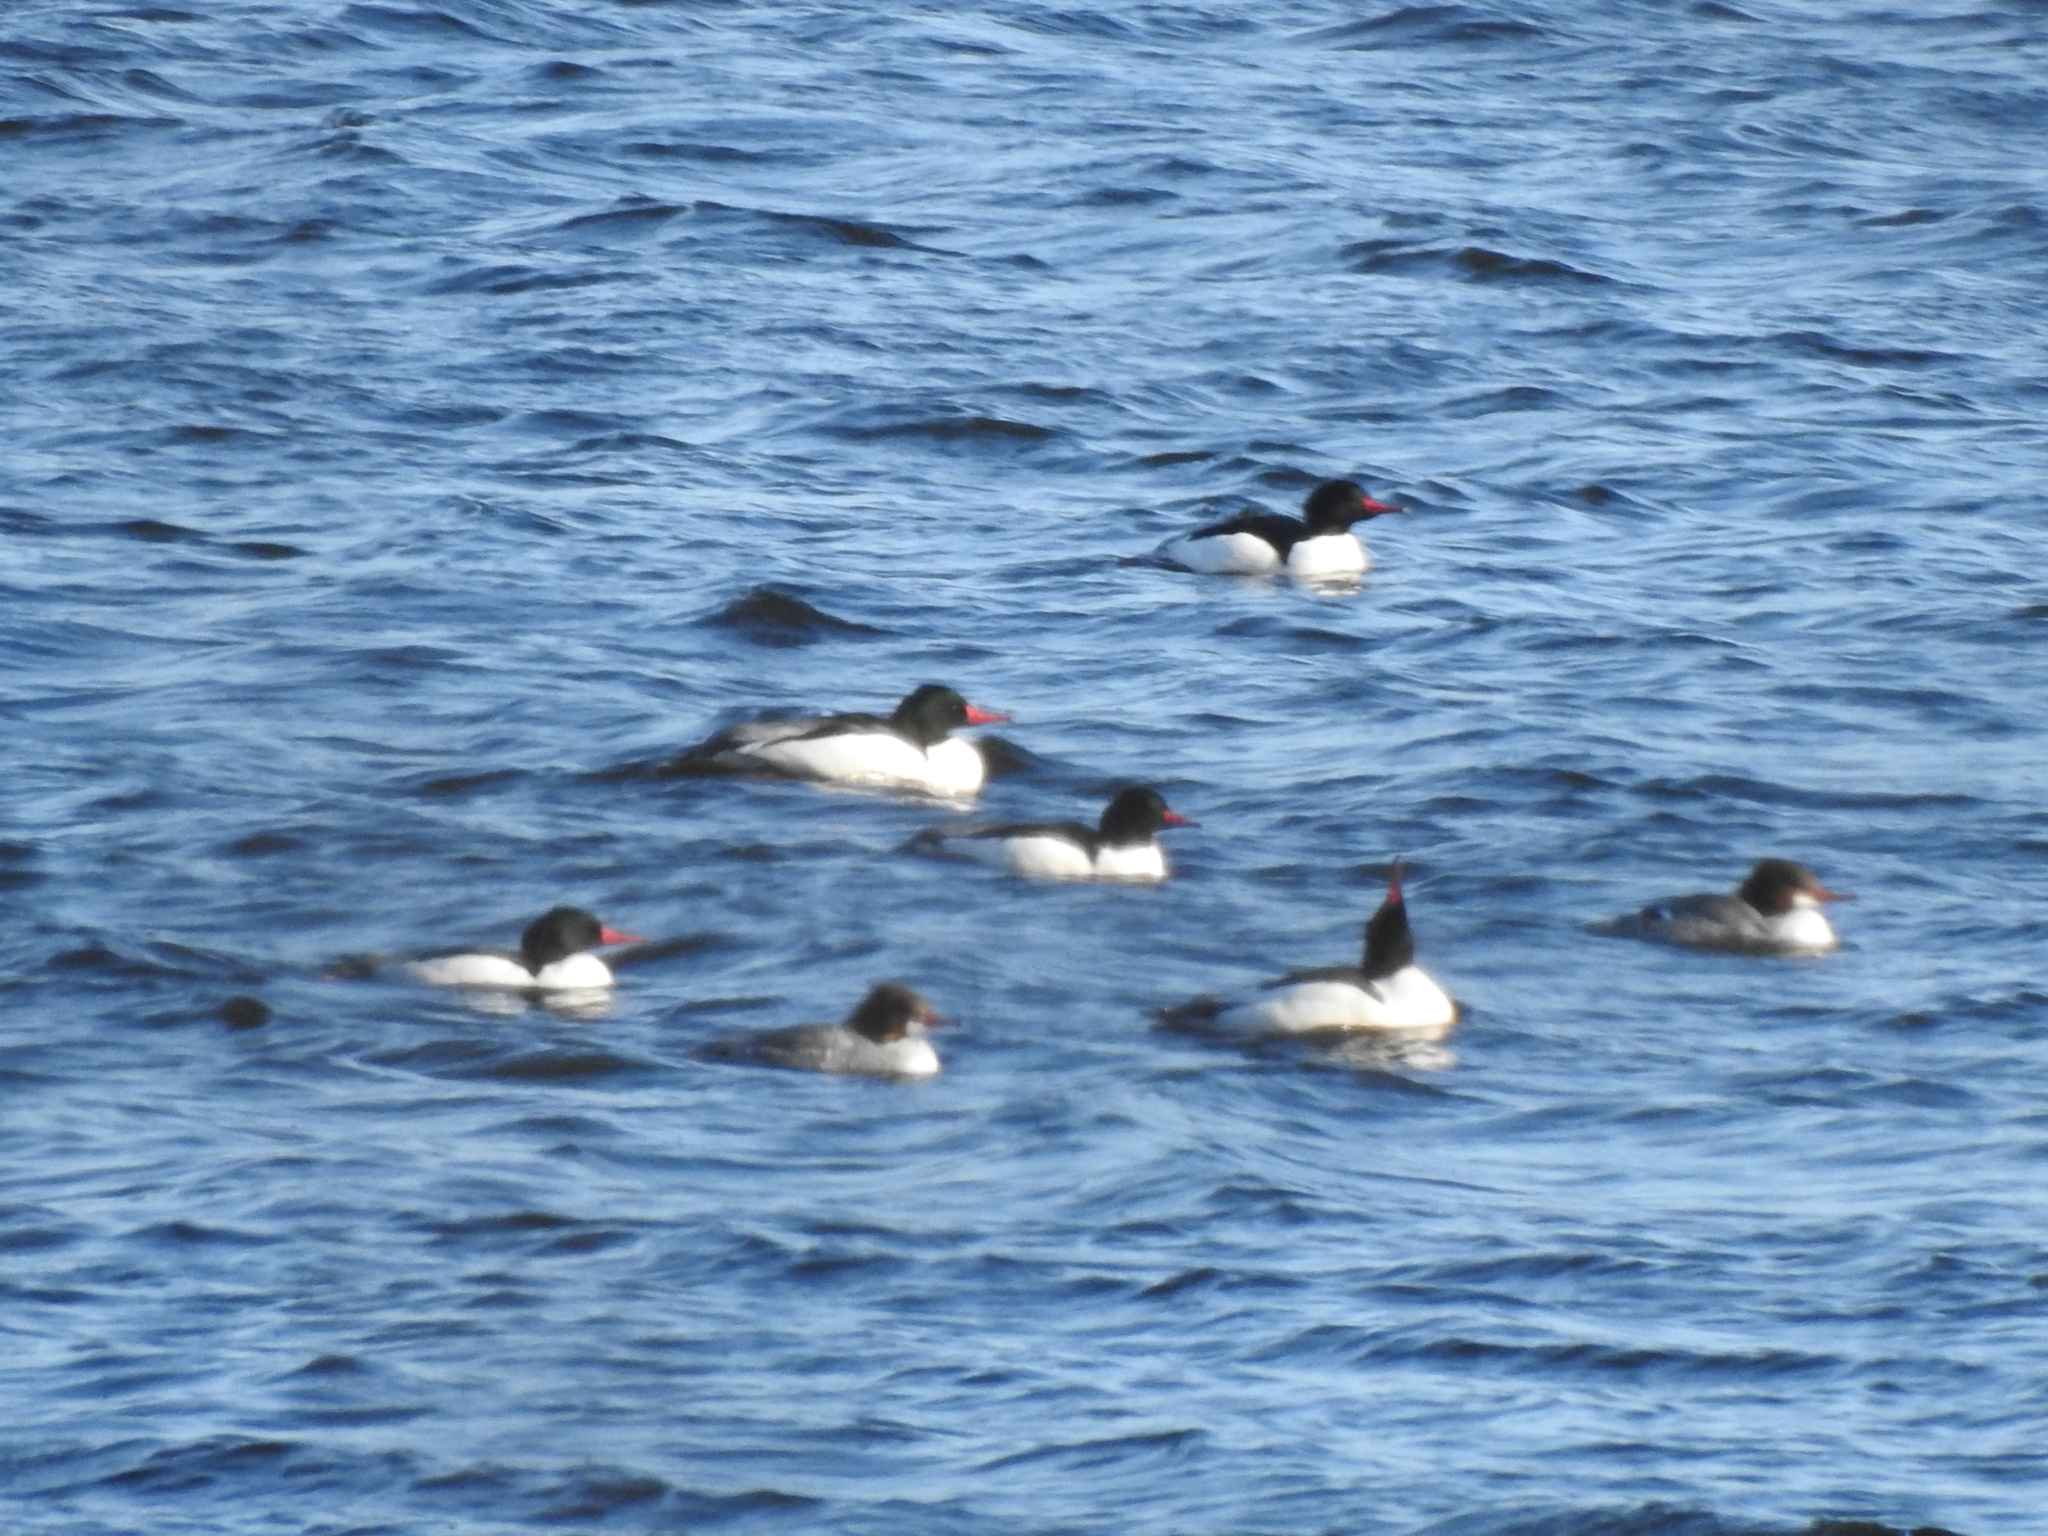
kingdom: Animalia
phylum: Chordata
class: Aves
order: Anseriformes
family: Anatidae
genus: Mergus
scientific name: Mergus merganser
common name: Common merganser
